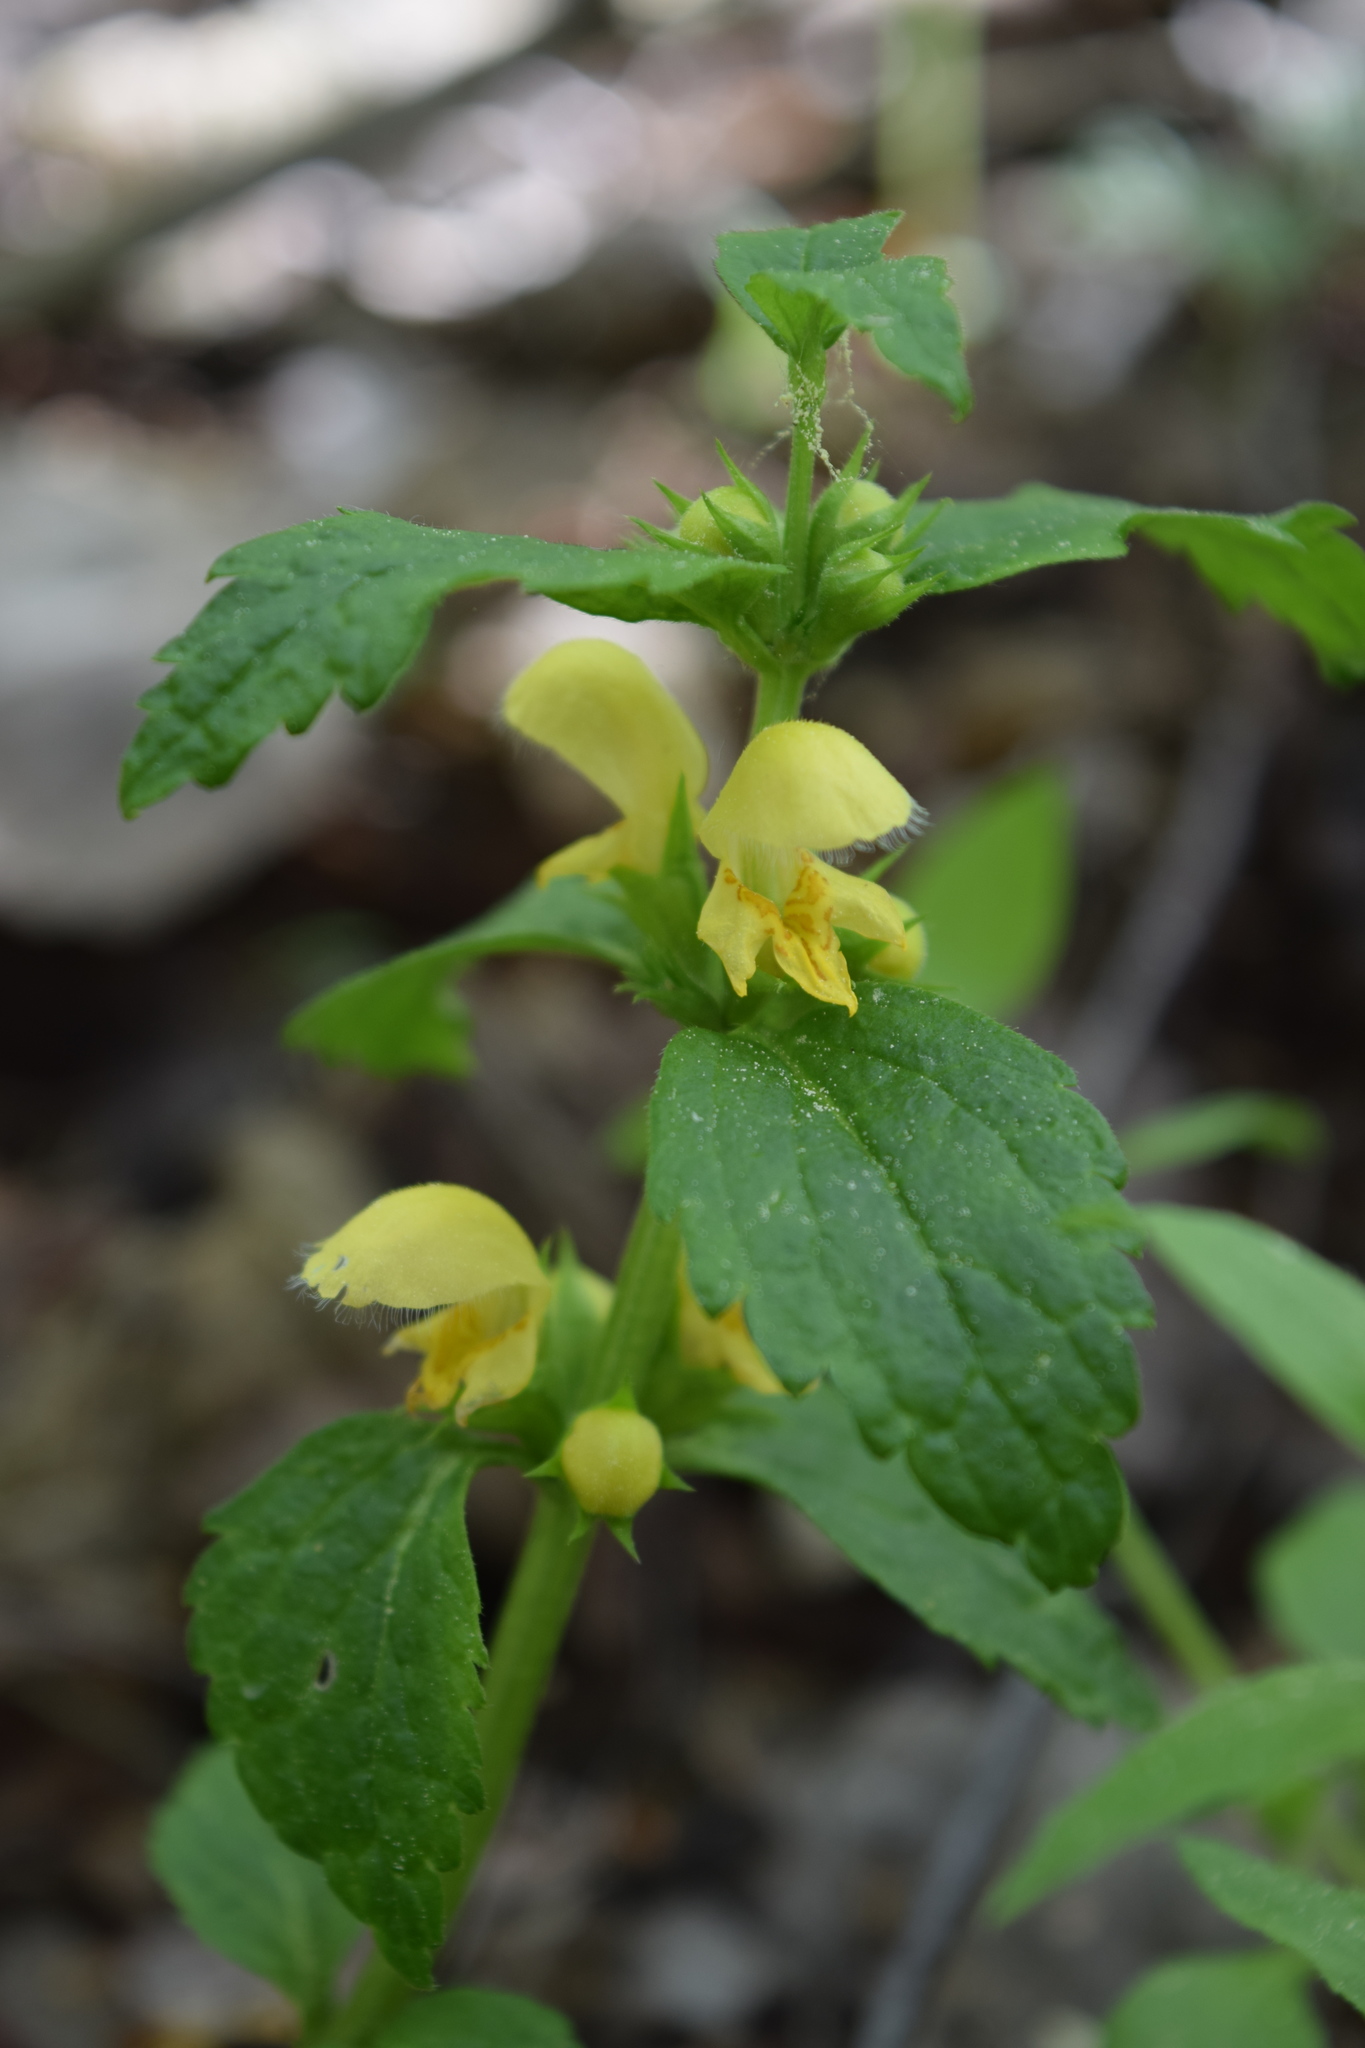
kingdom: Plantae
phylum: Tracheophyta
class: Magnoliopsida
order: Lamiales
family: Lamiaceae
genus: Lamium
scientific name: Lamium galeobdolon
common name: Yellow archangel
